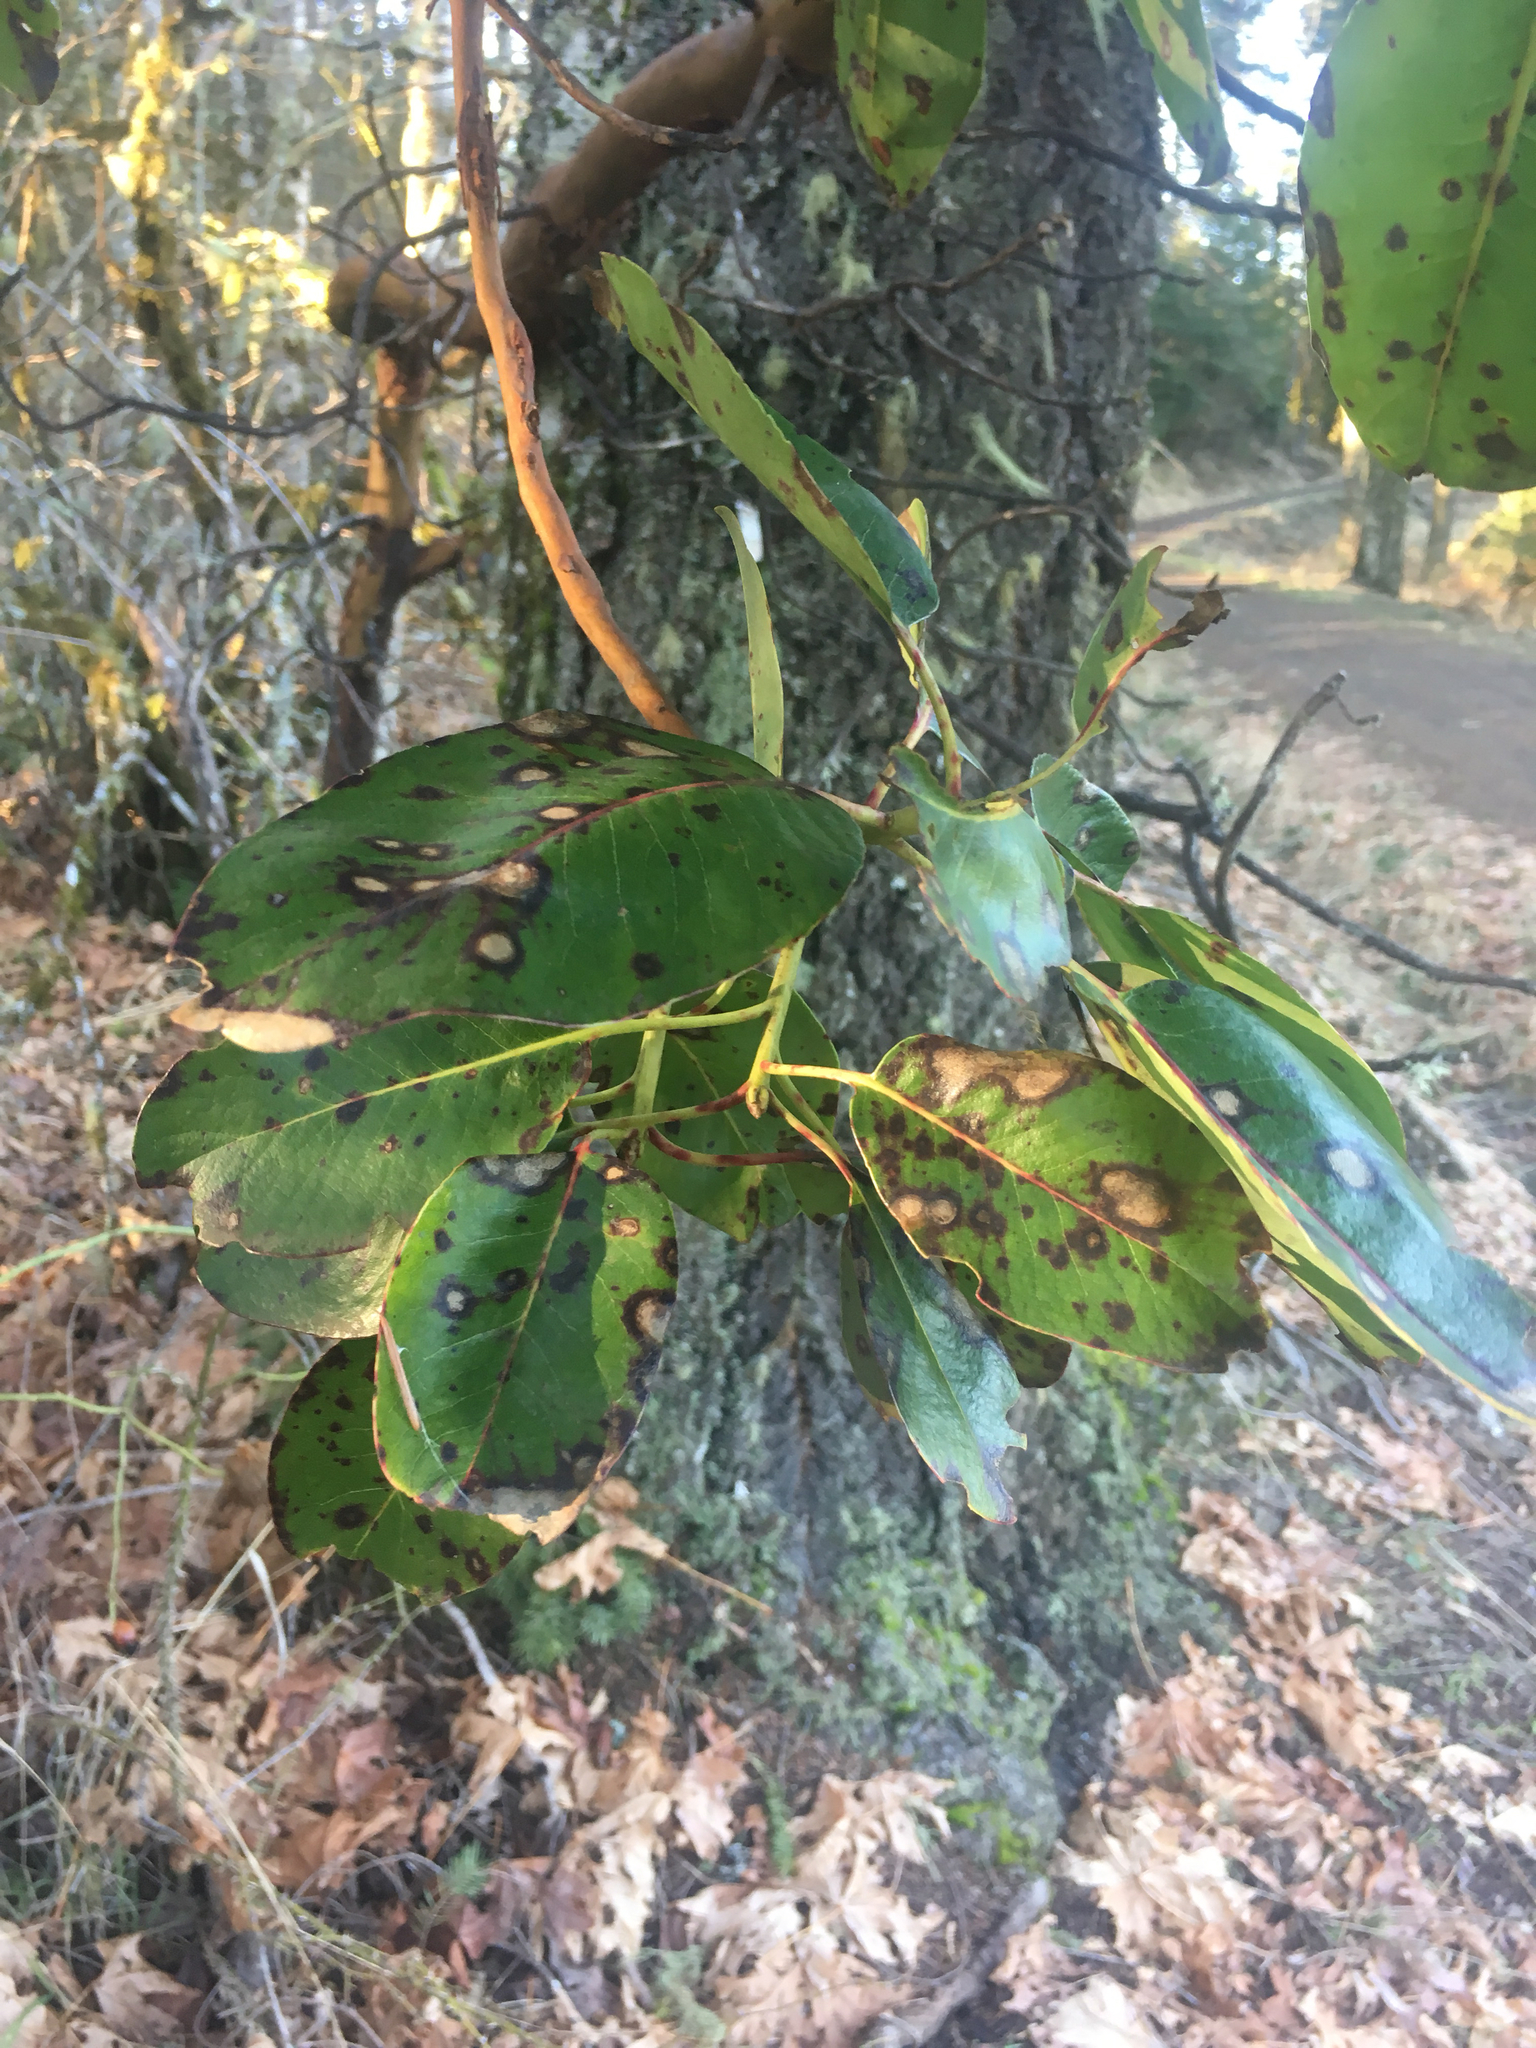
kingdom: Plantae
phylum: Tracheophyta
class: Magnoliopsida
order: Ericales
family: Ericaceae
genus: Arbutus
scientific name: Arbutus menziesii
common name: Pacific madrone
